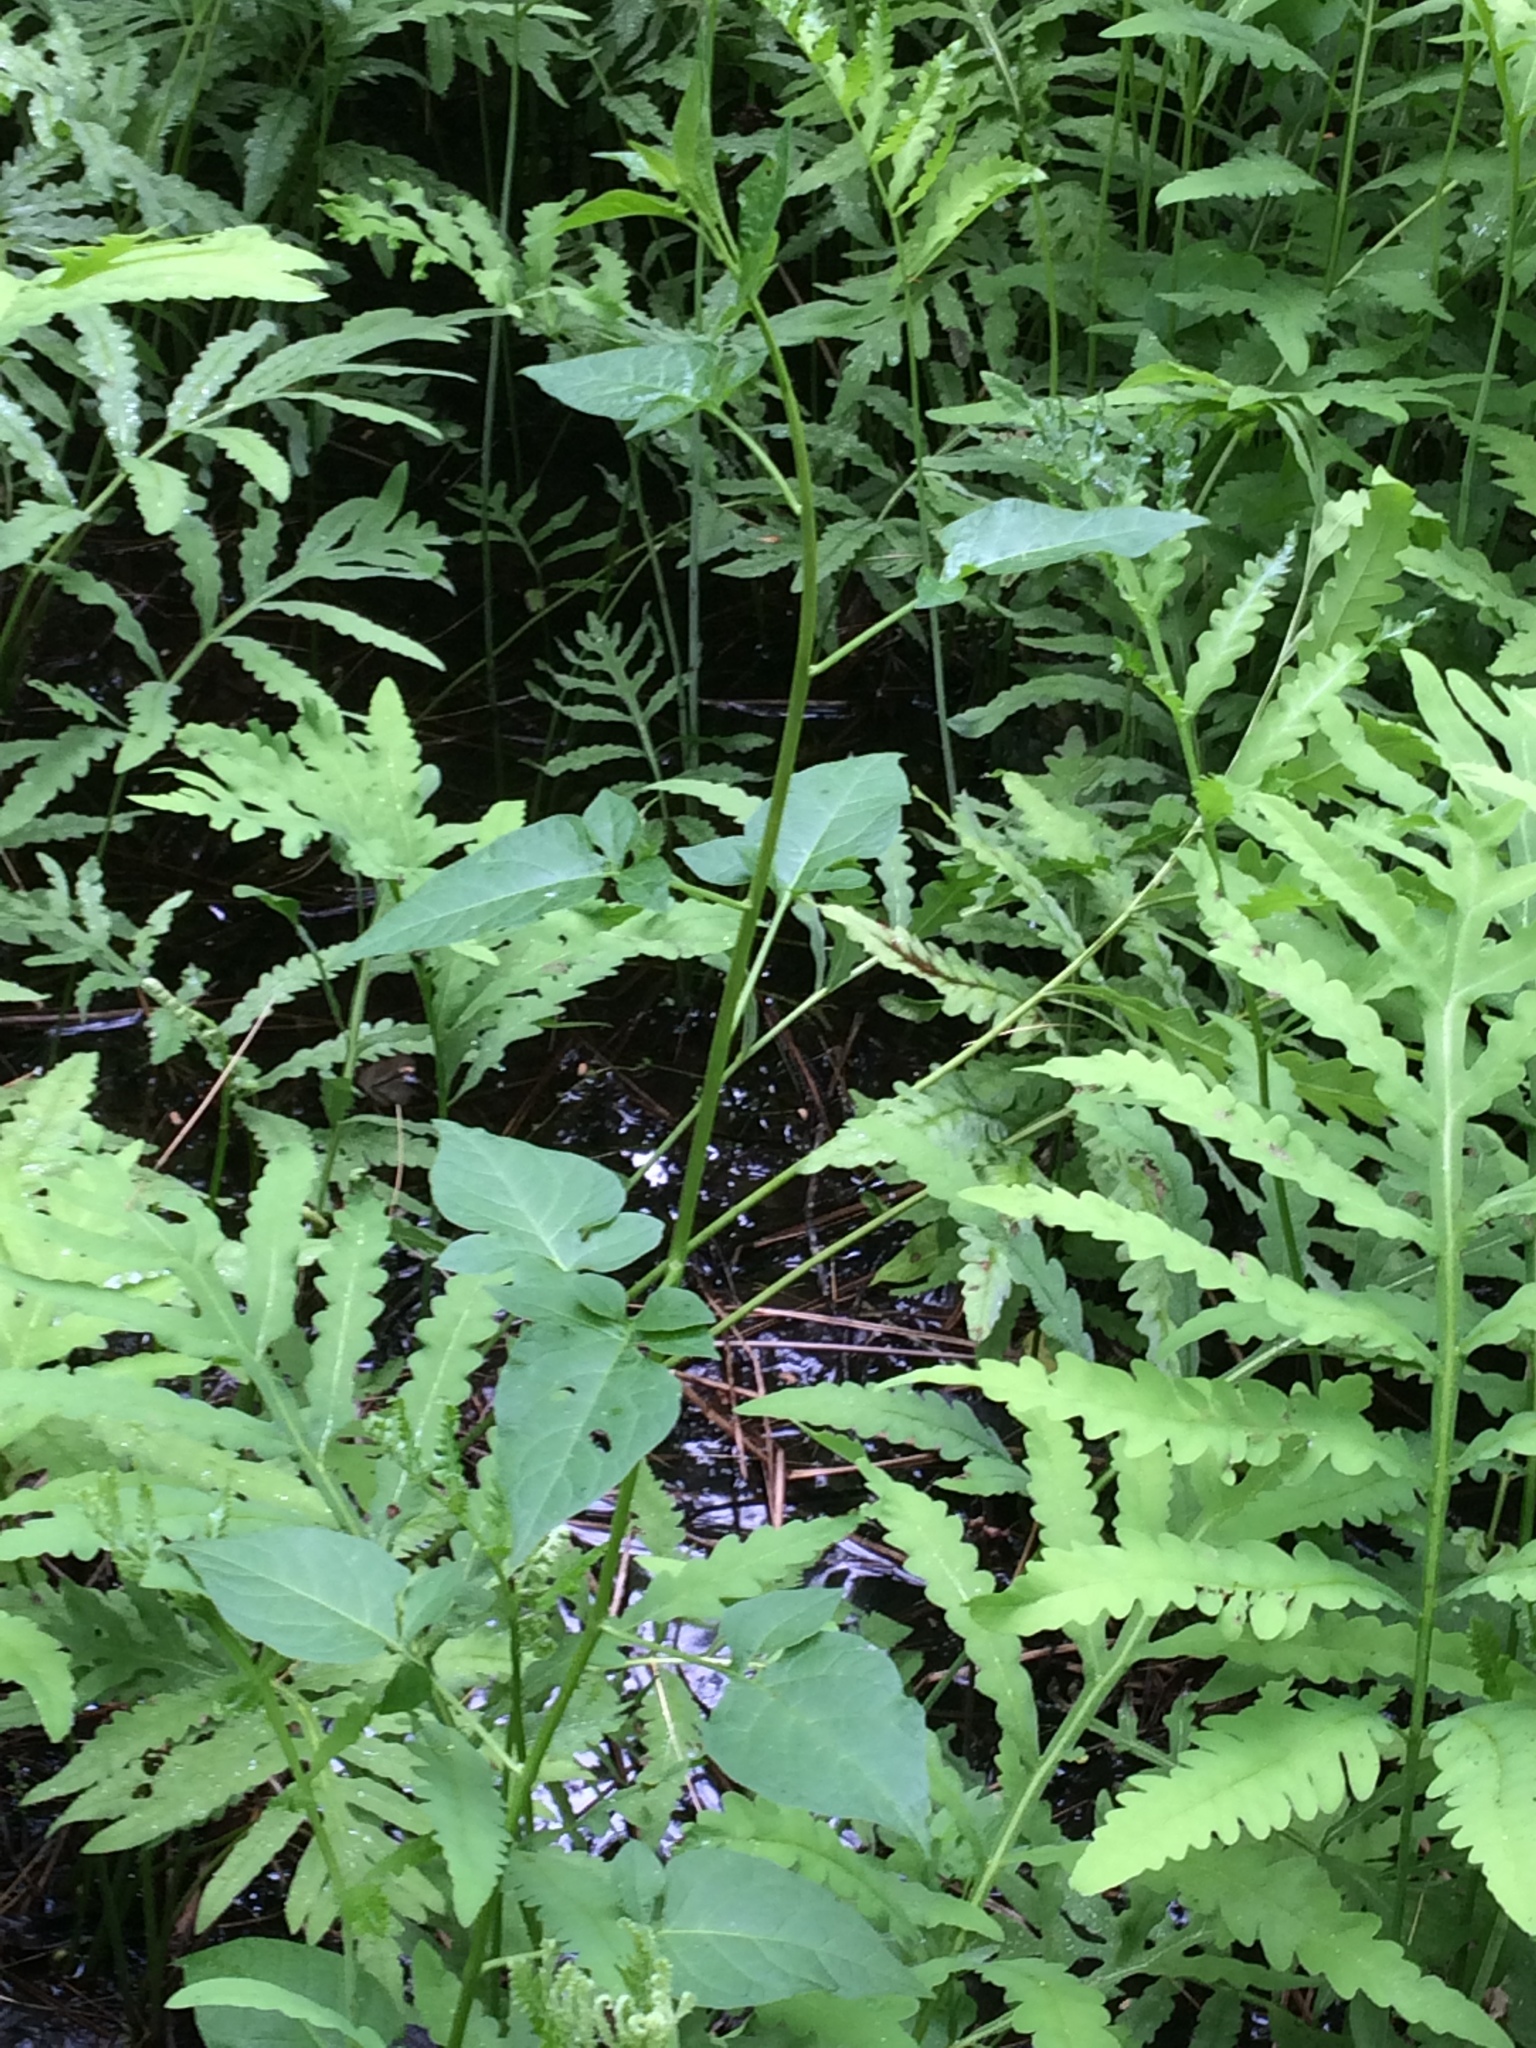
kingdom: Plantae
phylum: Tracheophyta
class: Magnoliopsida
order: Solanales
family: Solanaceae
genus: Solanum
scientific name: Solanum dulcamara
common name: Climbing nightshade
